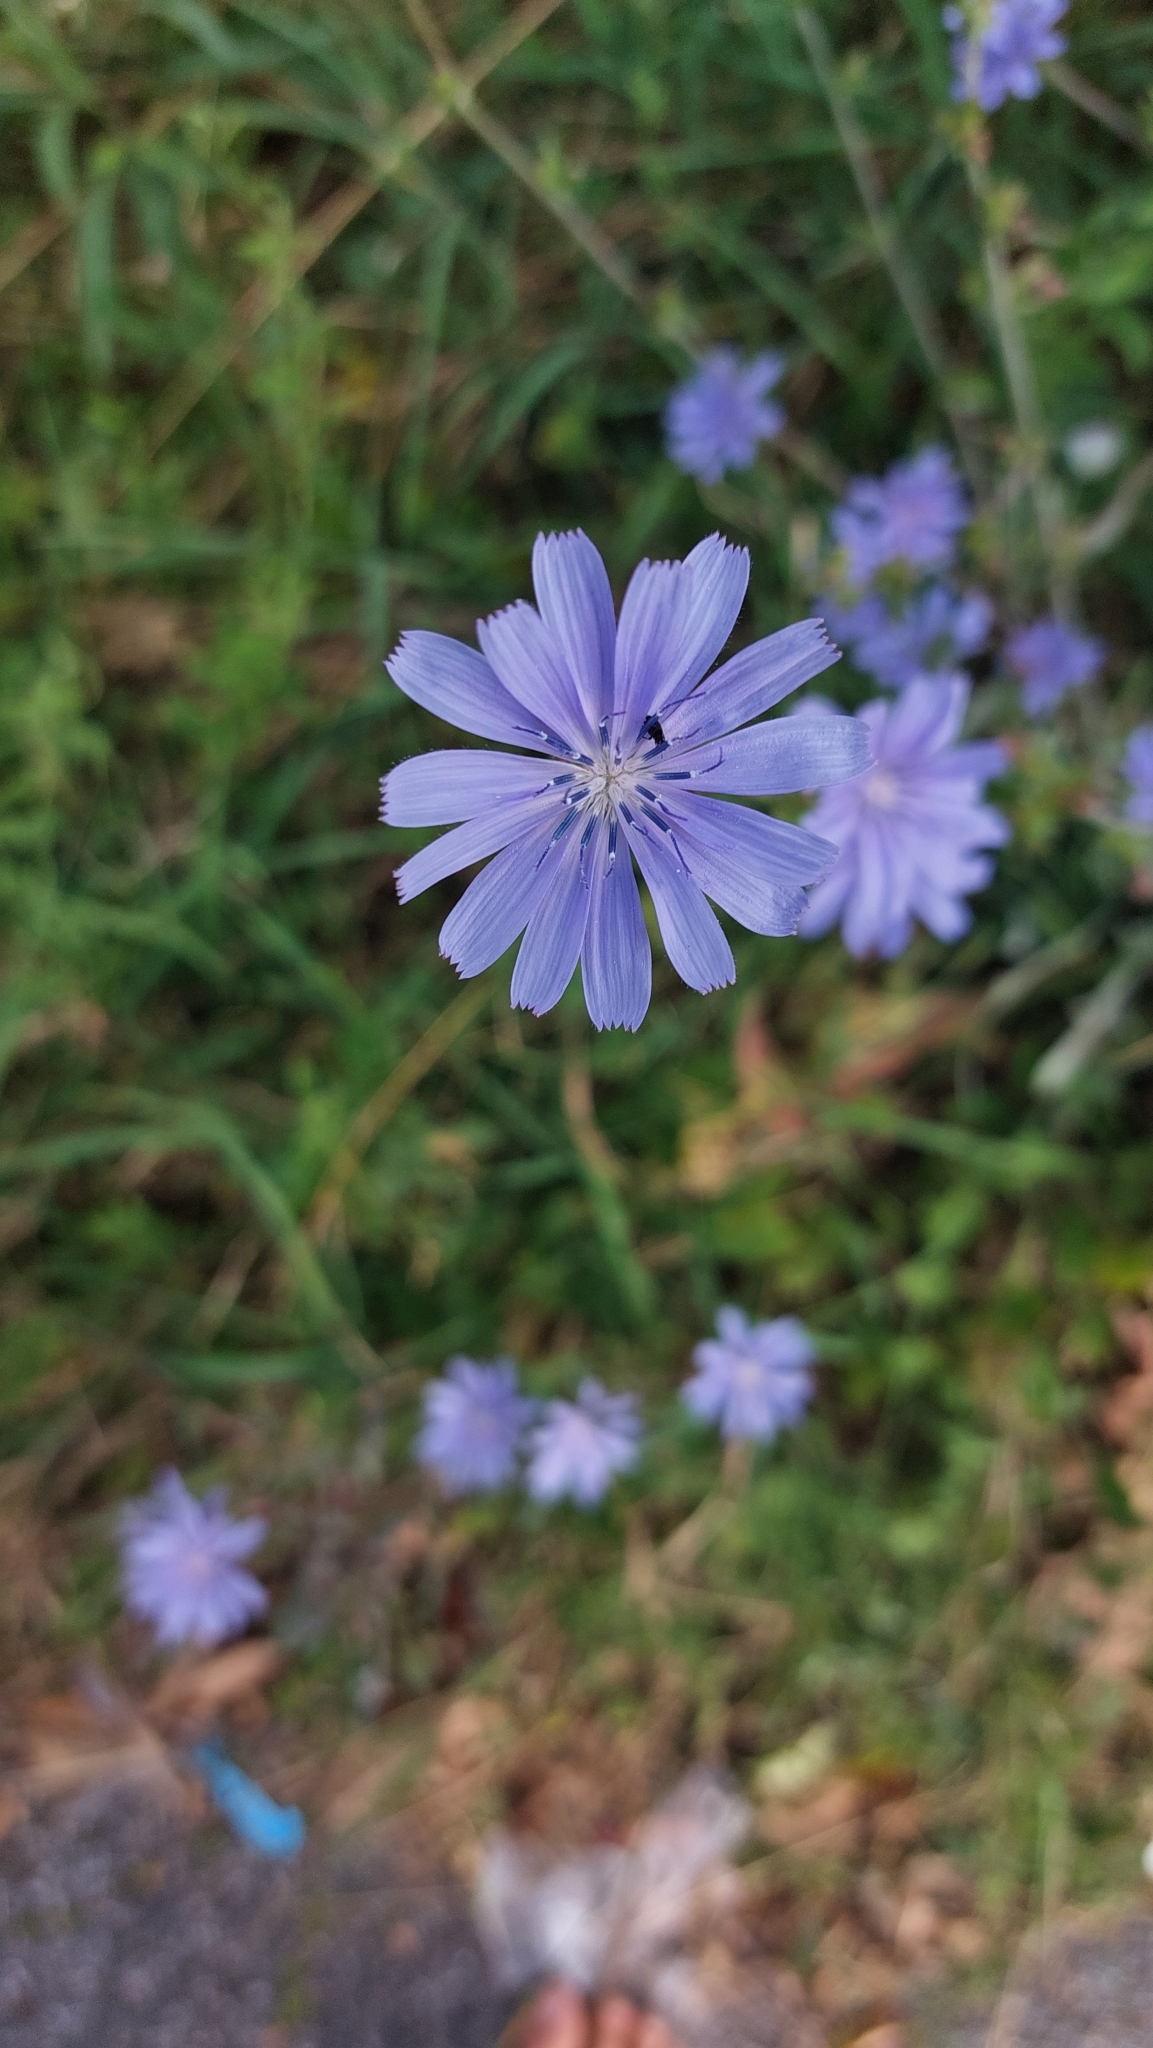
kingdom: Plantae
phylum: Tracheophyta
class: Magnoliopsida
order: Asterales
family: Asteraceae
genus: Cichorium
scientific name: Cichorium intybus
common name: Chicory
